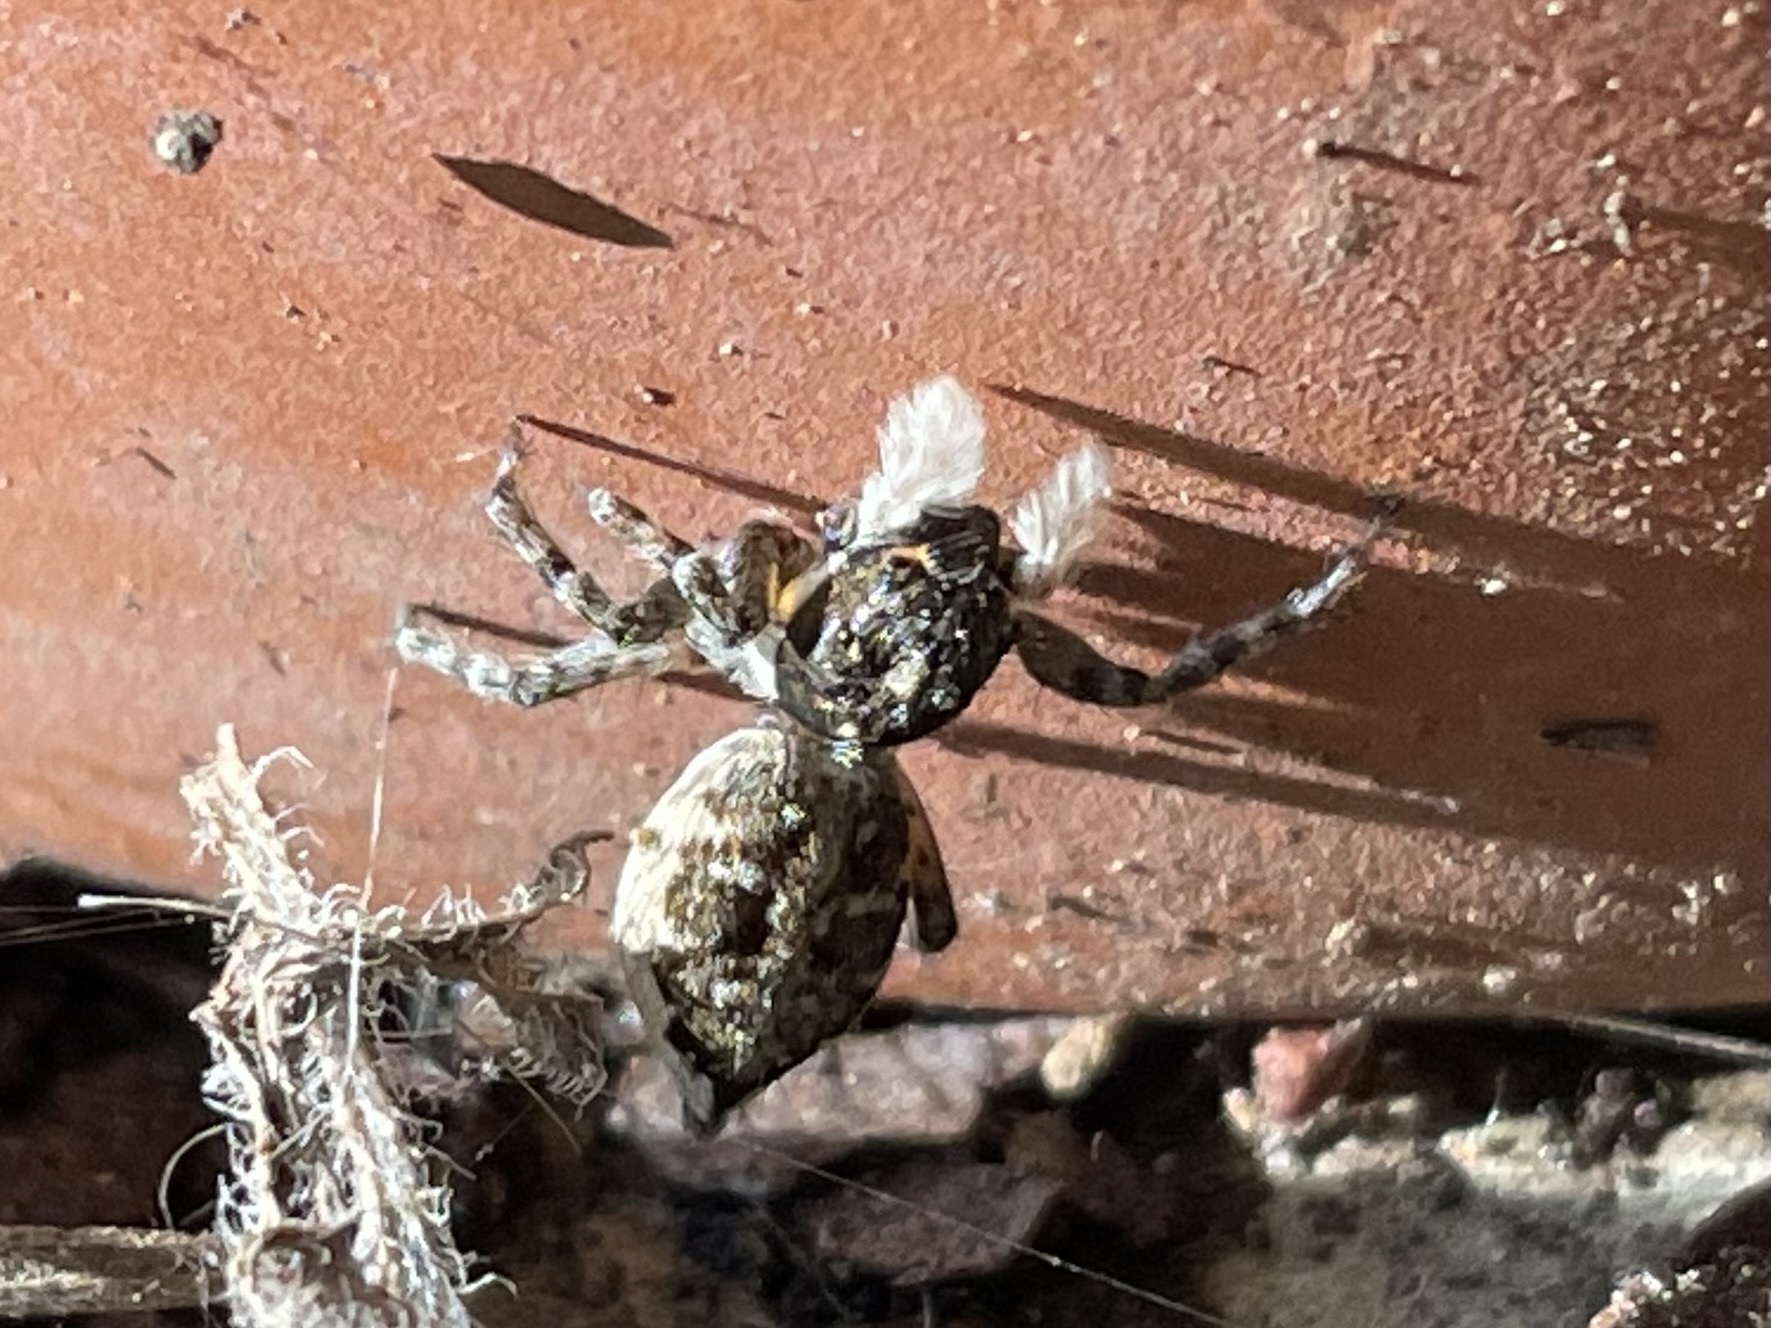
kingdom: Animalia
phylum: Arthropoda
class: Arachnida
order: Araneae
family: Salticidae
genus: Menemerus
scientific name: Menemerus semilimbatus
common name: Jumping spider
